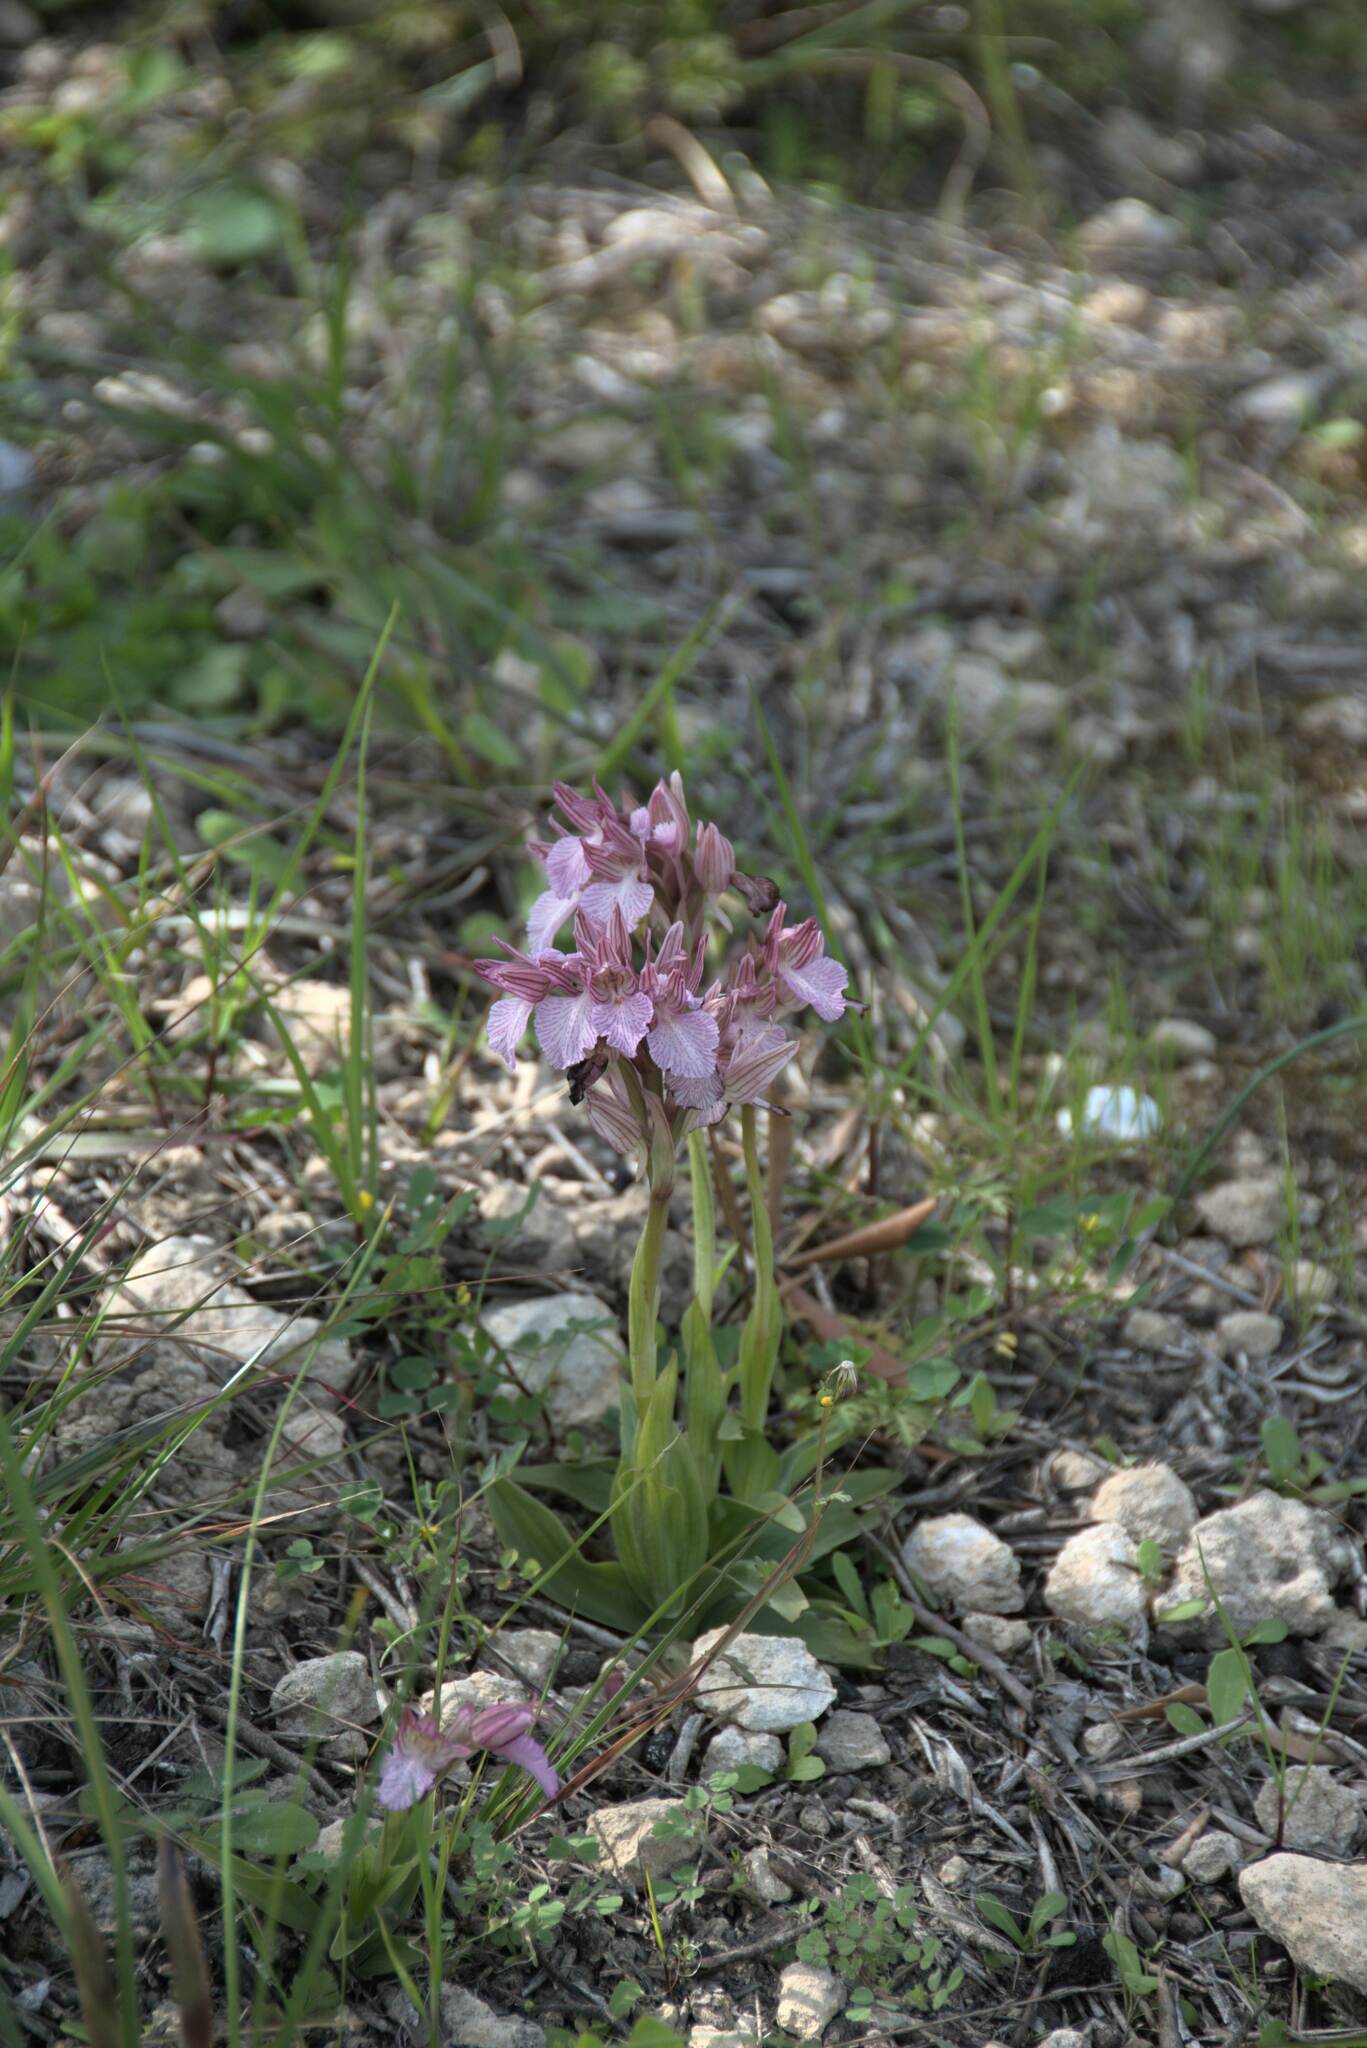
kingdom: Plantae
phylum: Tracheophyta
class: Liliopsida
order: Asparagales
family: Orchidaceae
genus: Anacamptis
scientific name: Anacamptis papilionacea
